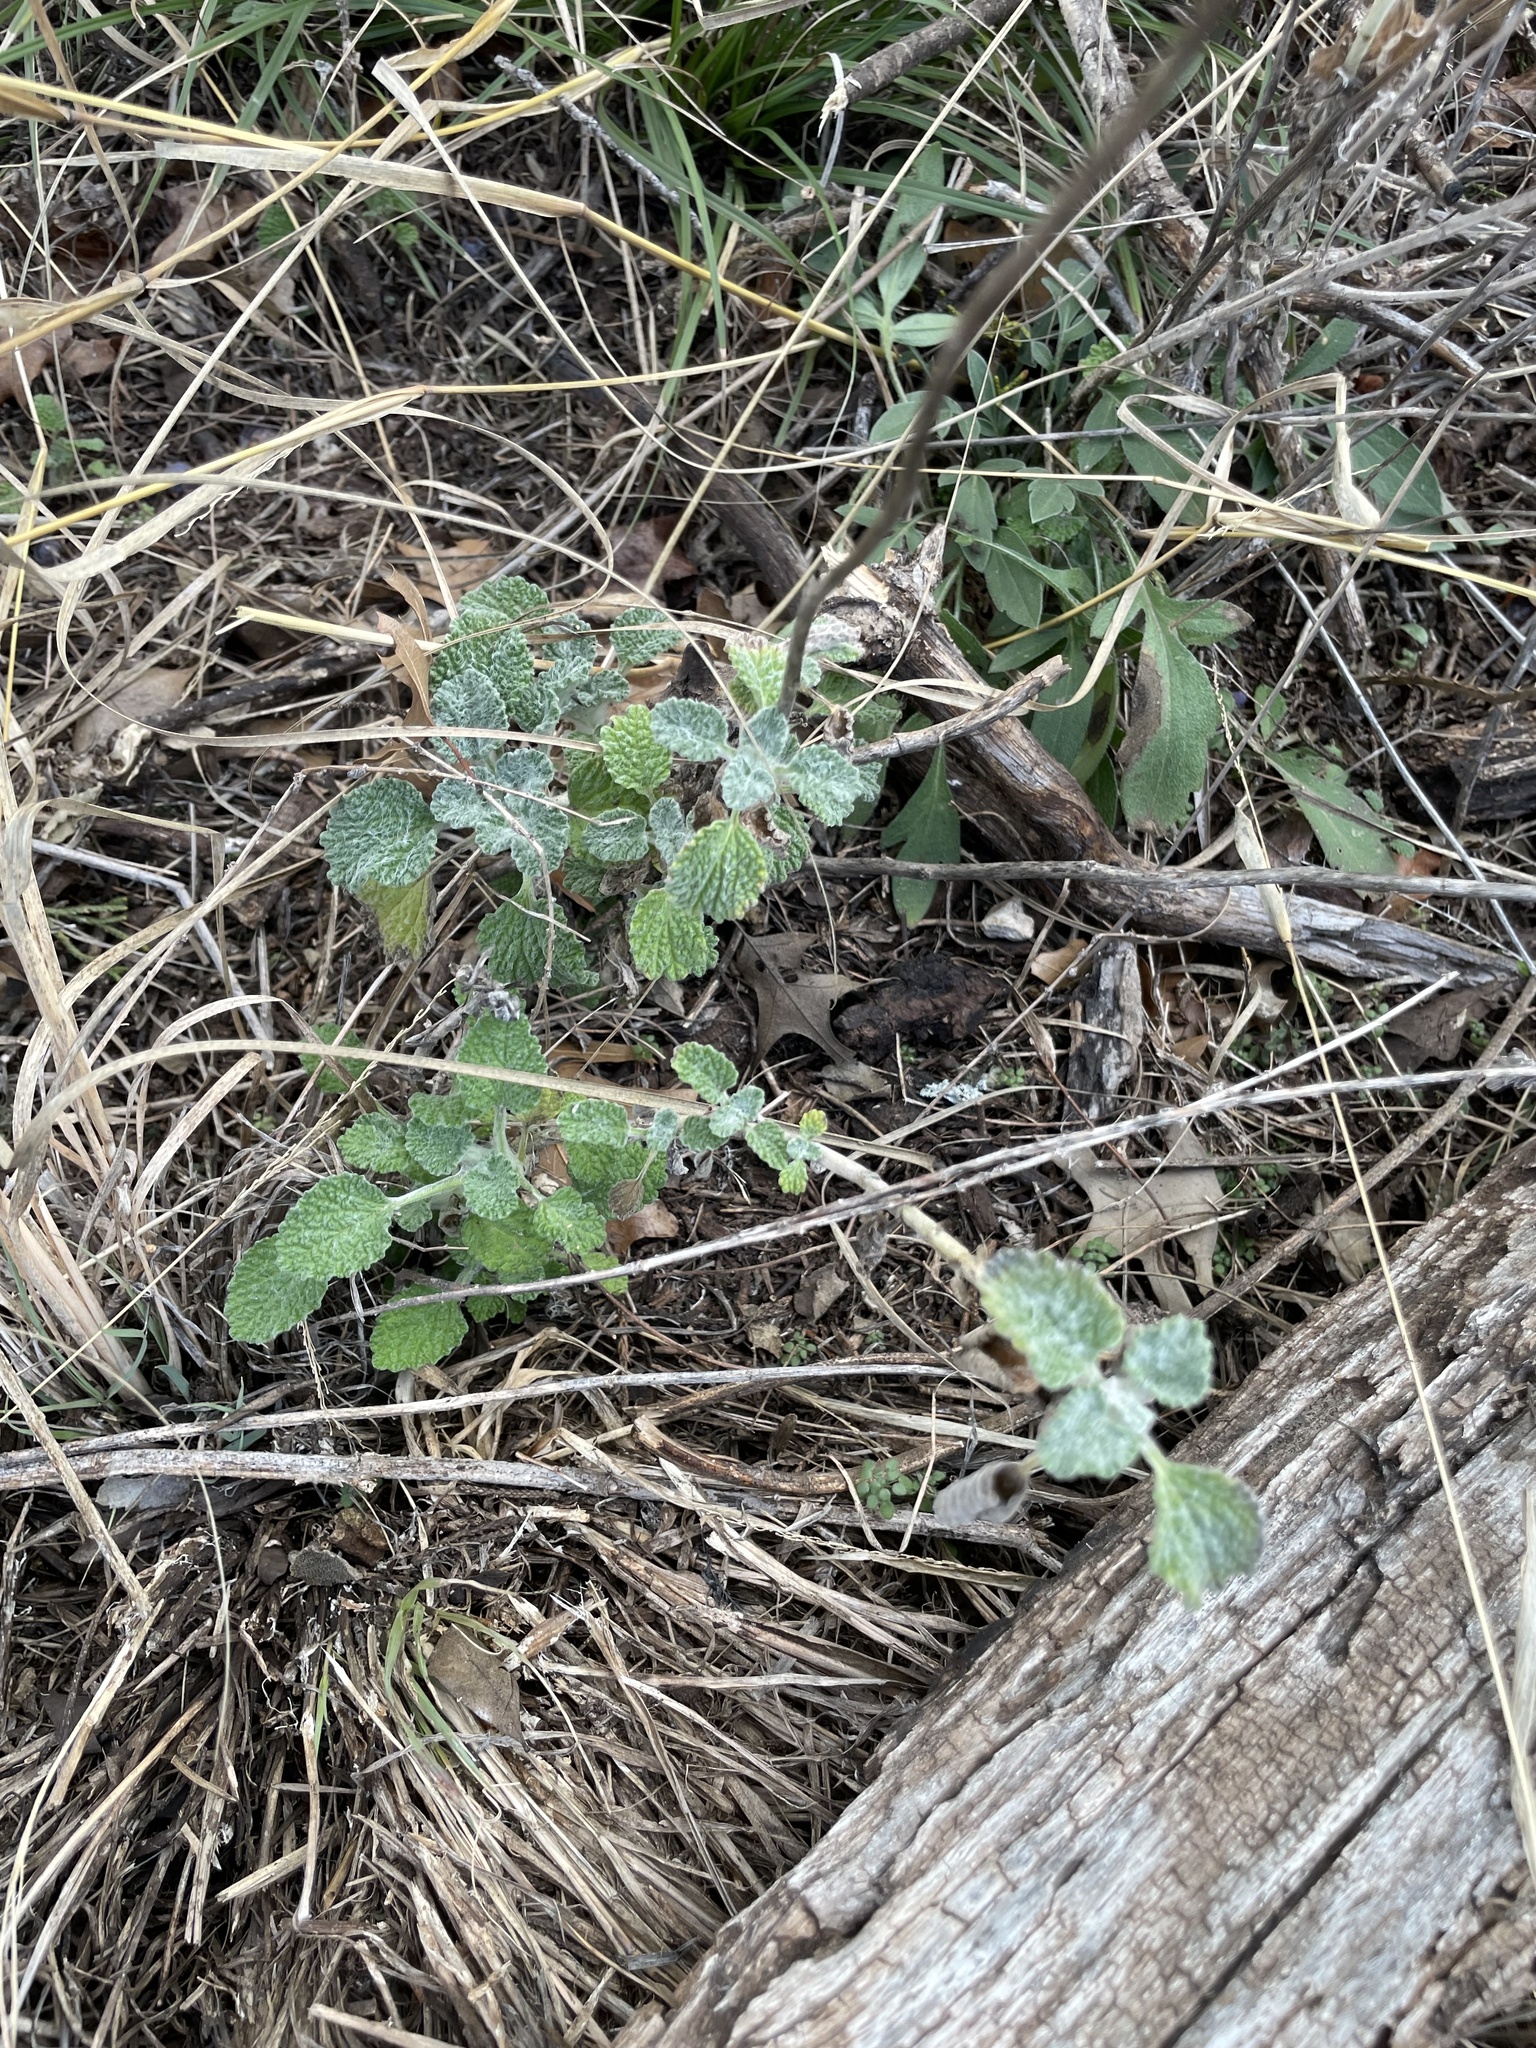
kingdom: Plantae
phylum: Tracheophyta
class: Magnoliopsida
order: Lamiales
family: Lamiaceae
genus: Marrubium
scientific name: Marrubium vulgare
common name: Horehound
